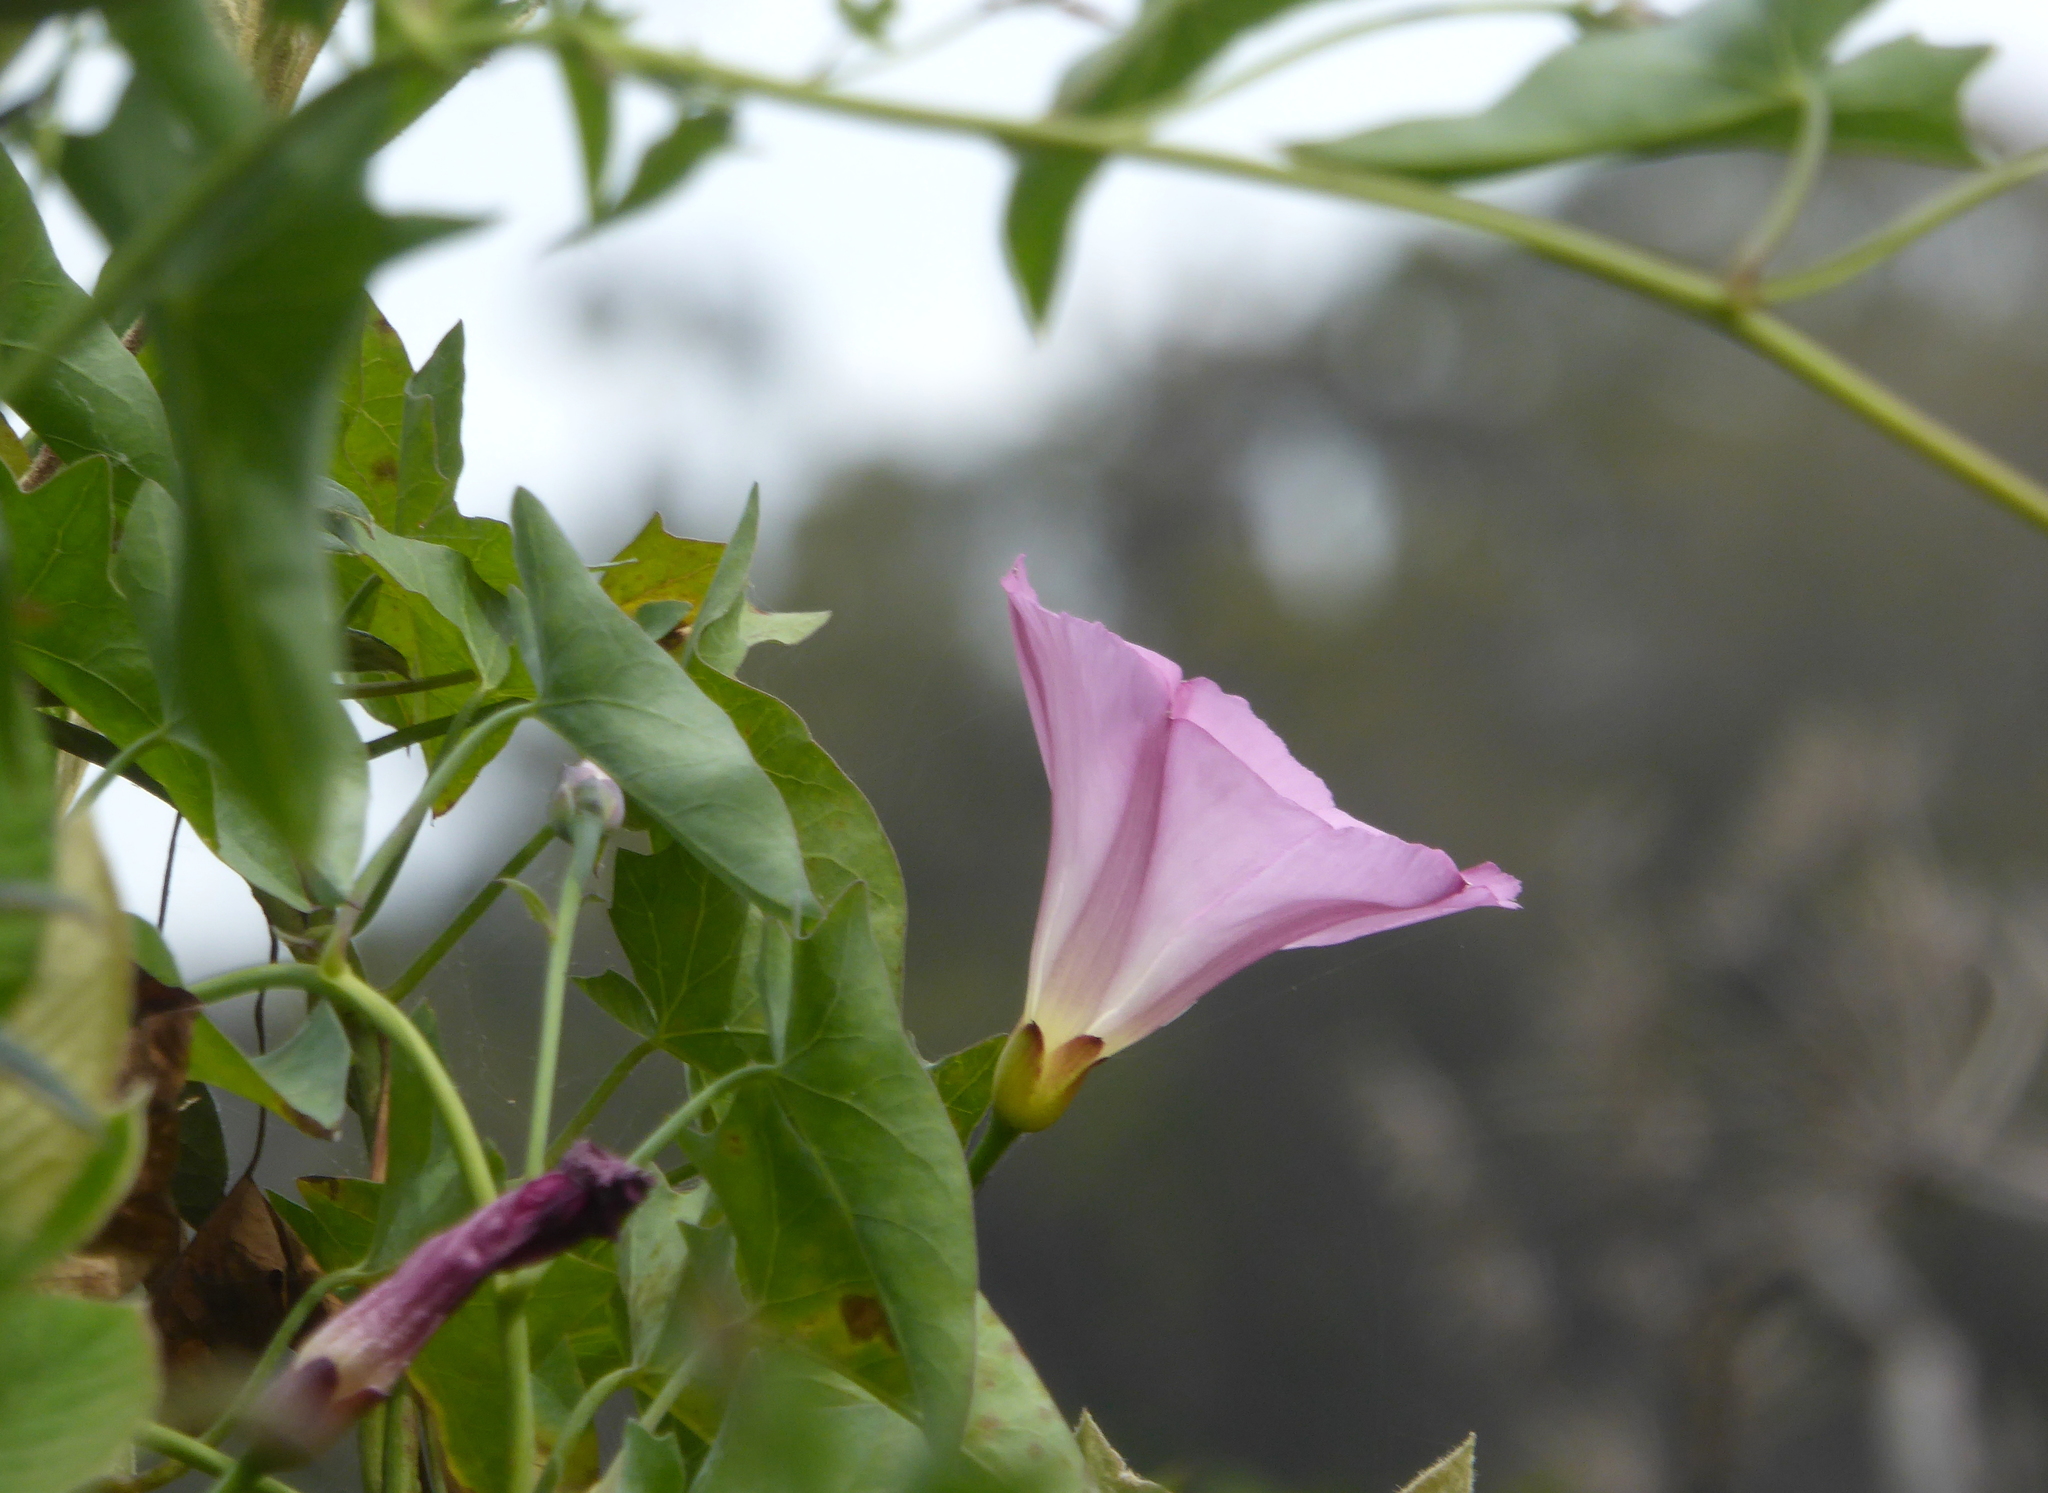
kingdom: Plantae
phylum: Tracheophyta
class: Magnoliopsida
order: Solanales
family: Convolvulaceae
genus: Calystegia
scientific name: Calystegia purpurata
